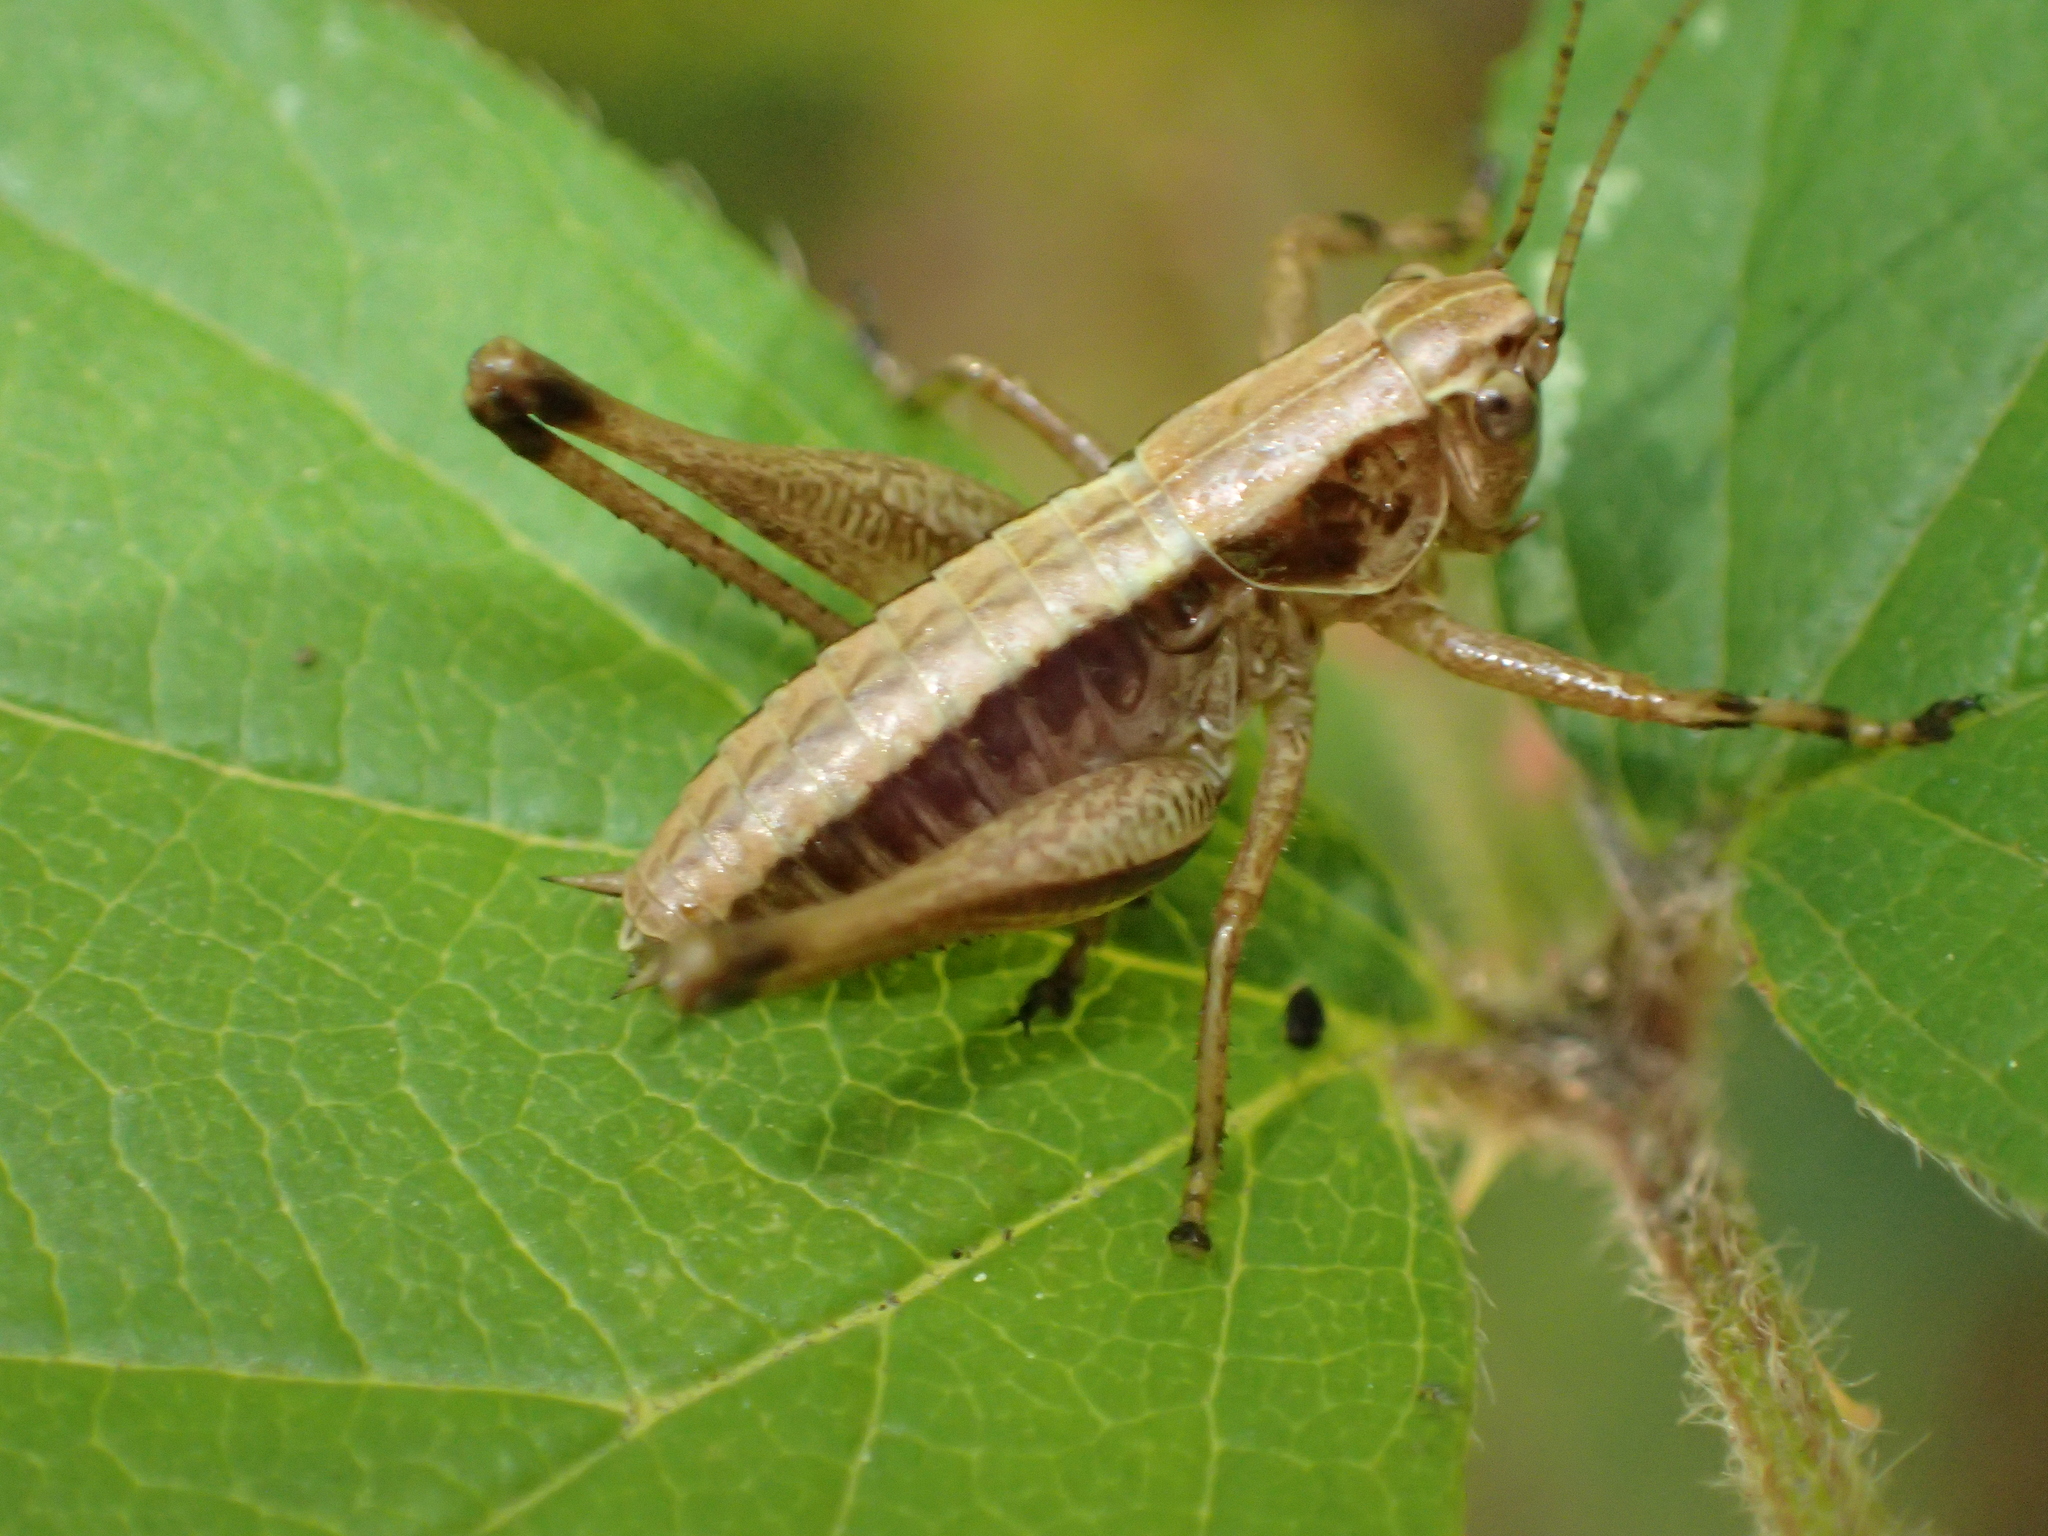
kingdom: Animalia
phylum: Arthropoda
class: Insecta
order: Orthoptera
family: Tettigoniidae
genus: Pholidoptera
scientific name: Pholidoptera griseoaptera
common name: Dark bush-cricket
